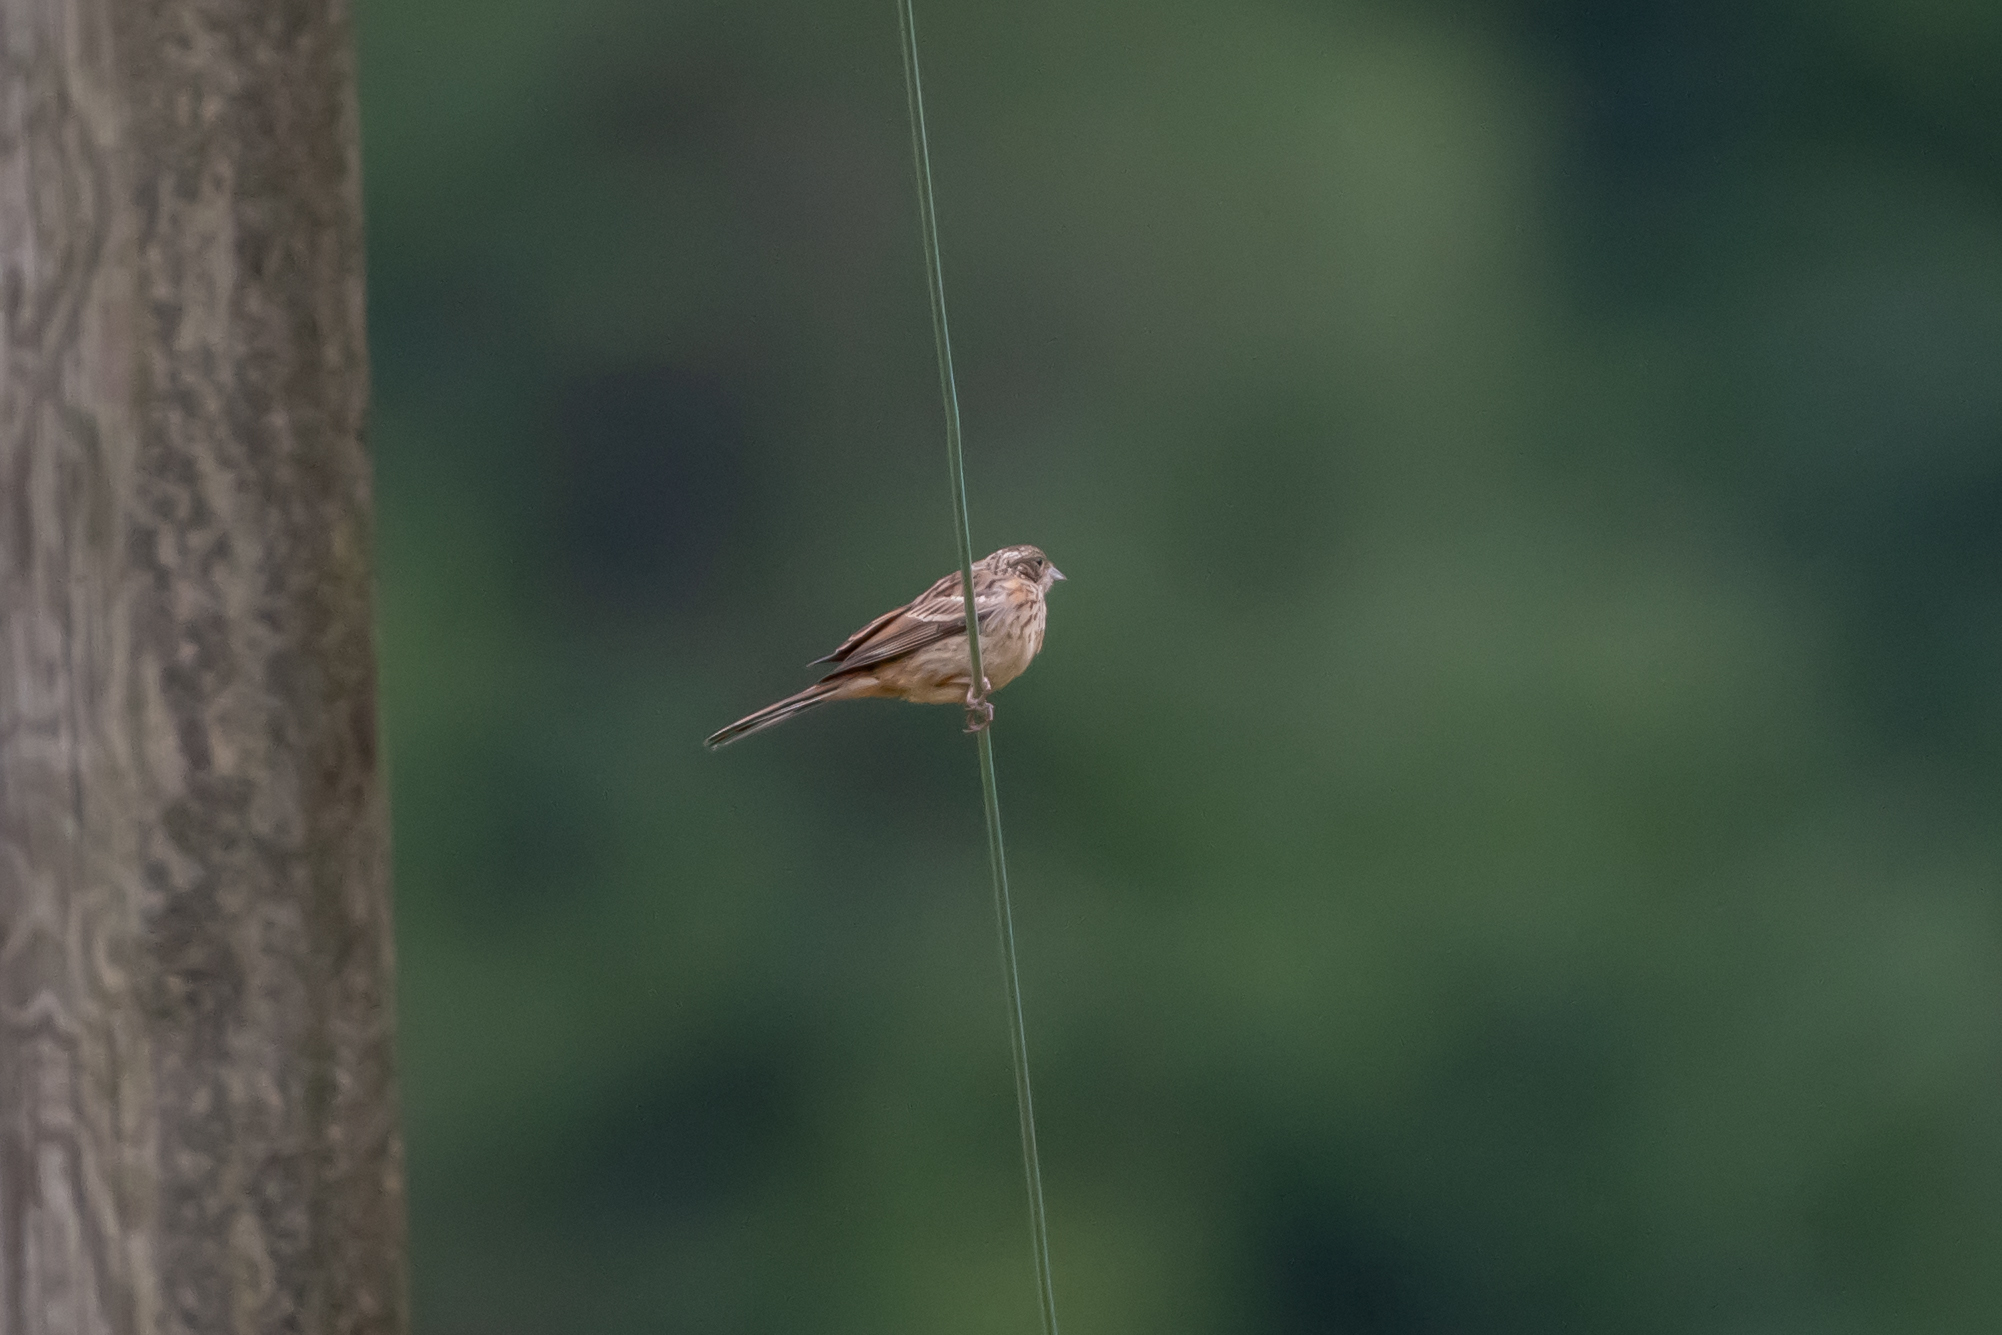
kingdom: Animalia
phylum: Chordata
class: Aves
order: Passeriformes
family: Emberizidae
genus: Emberiza
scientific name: Emberiza cia
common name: Rock bunting
